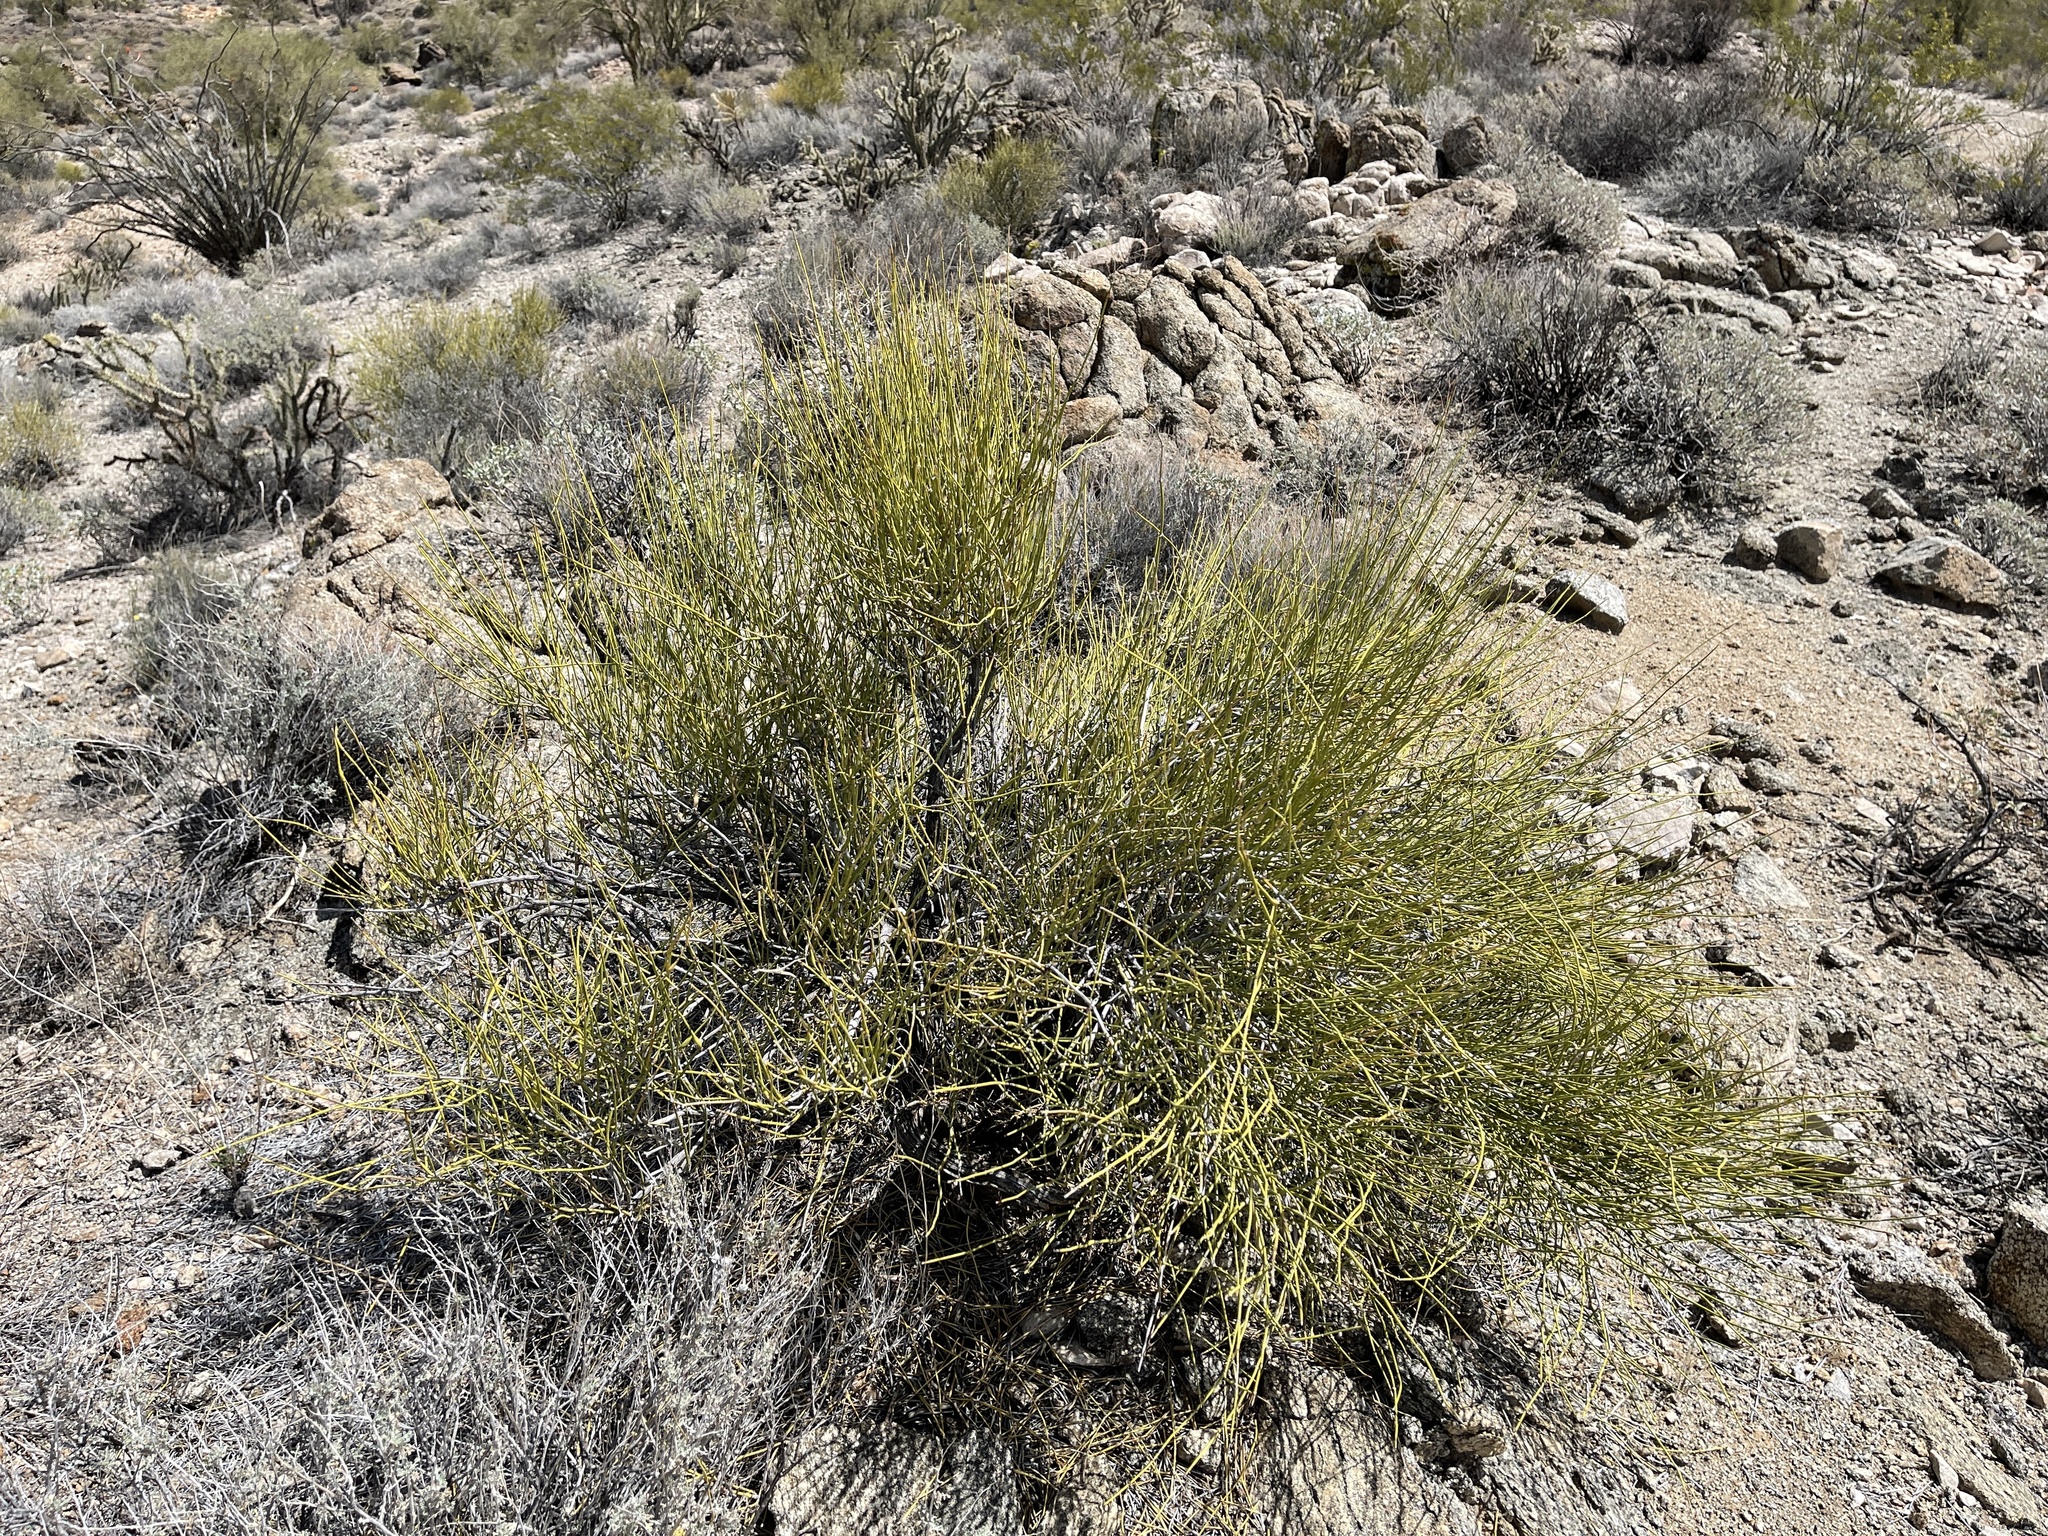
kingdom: Plantae
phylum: Tracheophyta
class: Gnetopsida
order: Ephedrales
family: Ephedraceae
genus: Ephedra
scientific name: Ephedra viridis
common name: Green ephedra
